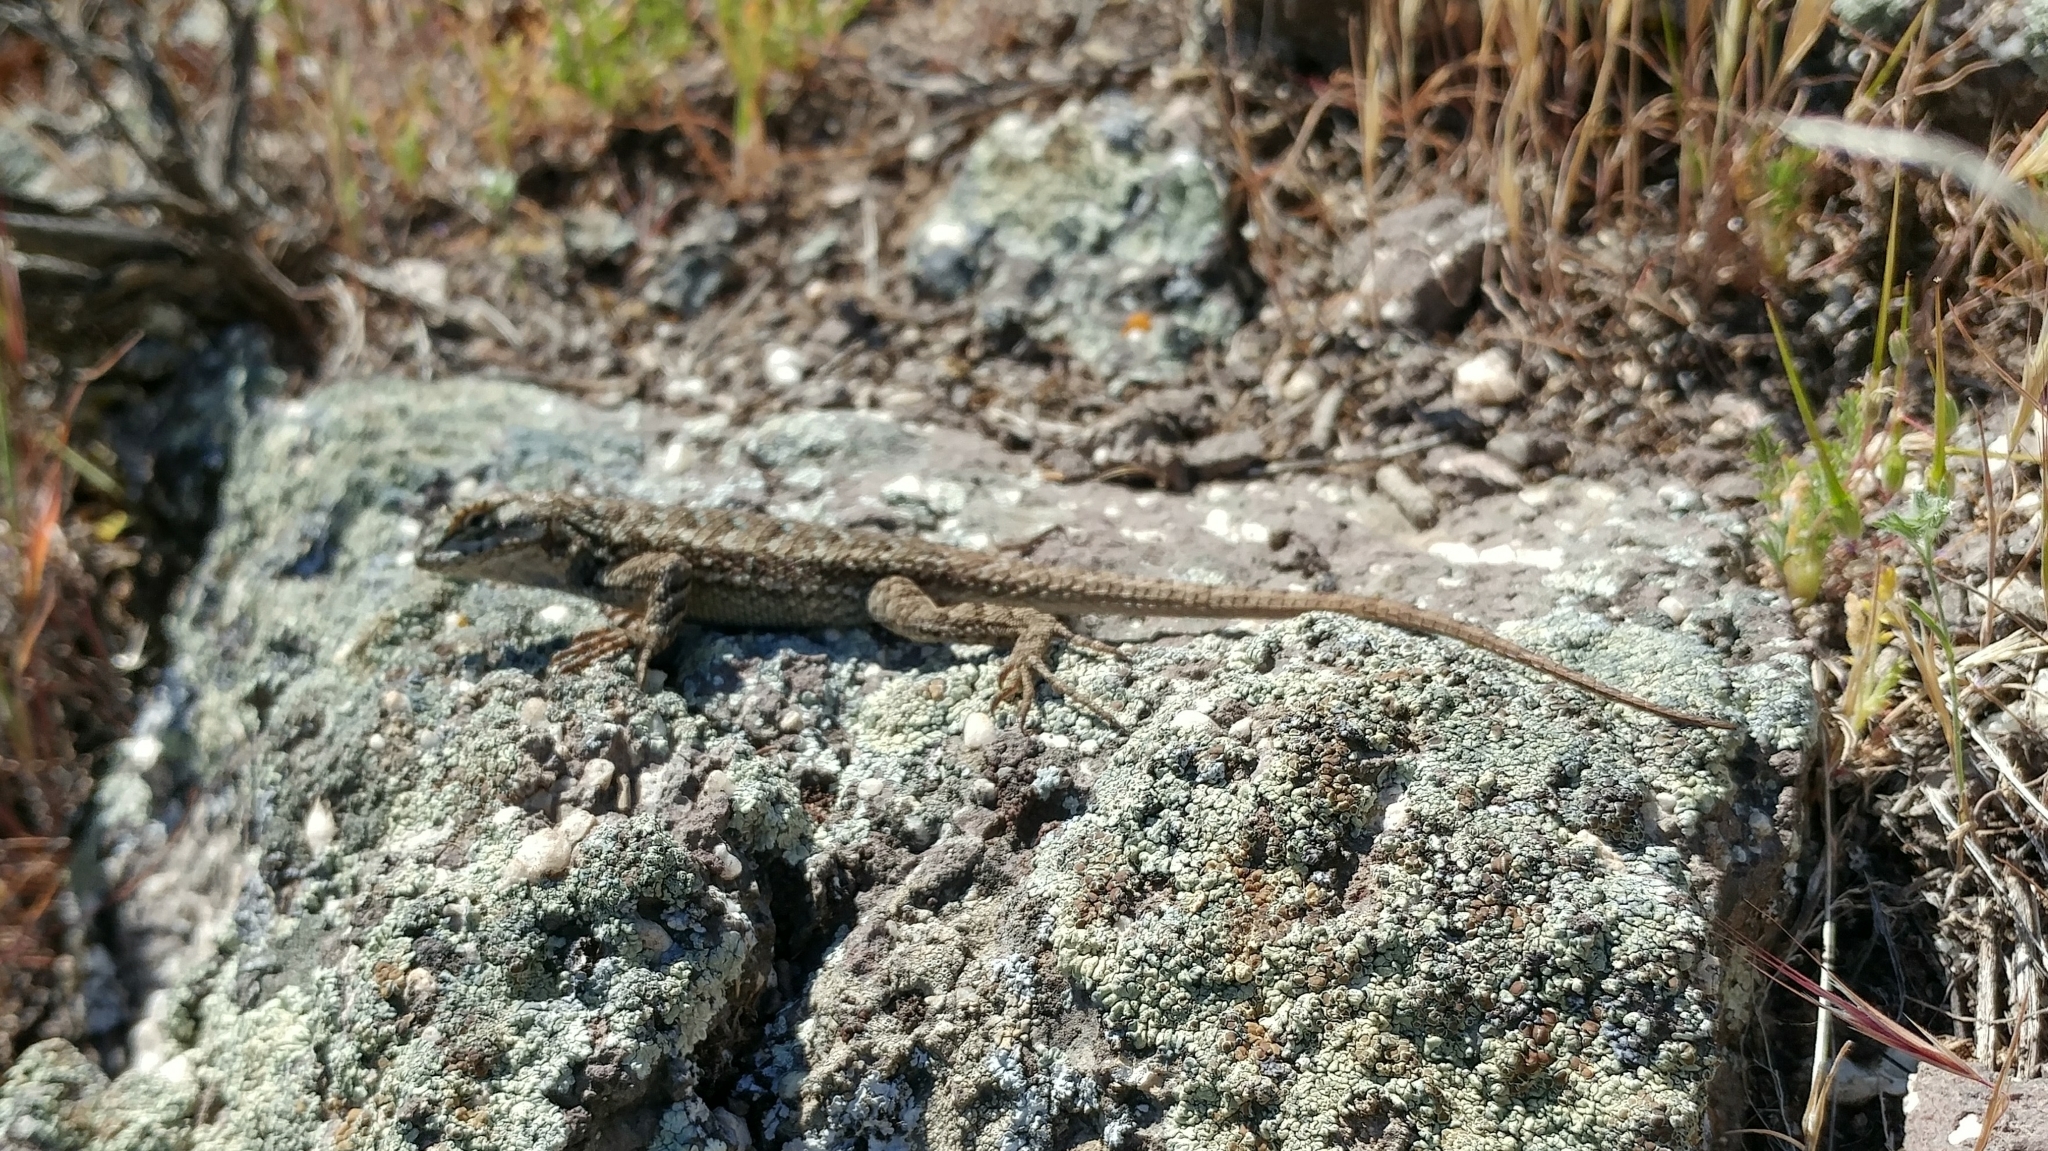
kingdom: Animalia
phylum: Chordata
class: Squamata
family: Phrynosomatidae
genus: Sceloporus
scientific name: Sceloporus occidentalis
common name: Western fence lizard
